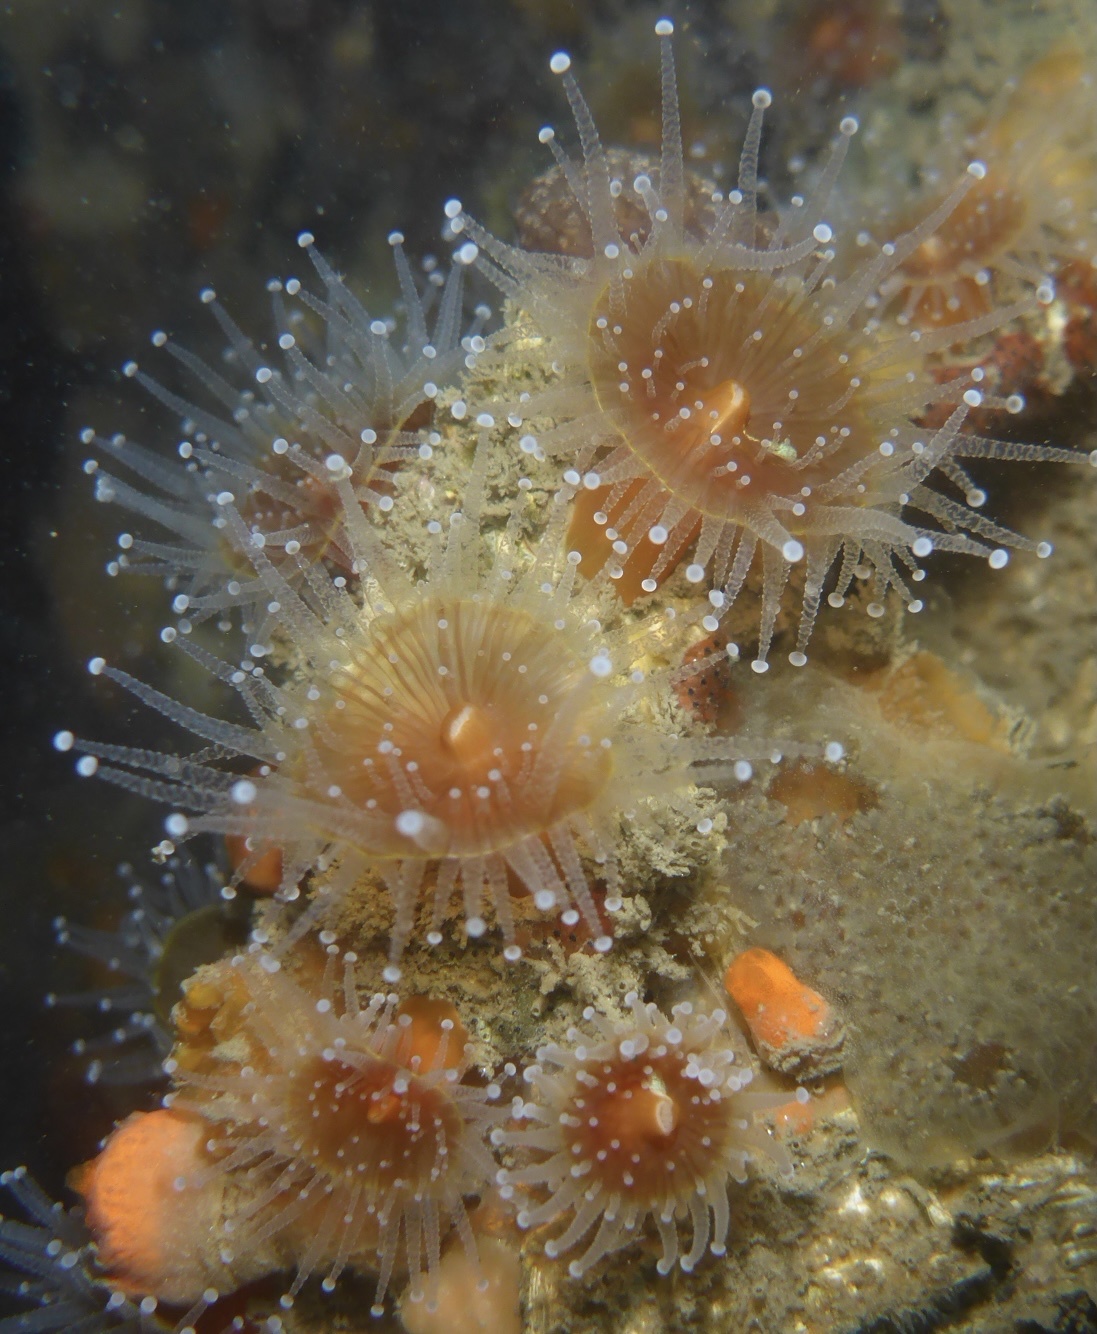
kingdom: Animalia
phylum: Cnidaria
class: Anthozoa
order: Corallimorpharia
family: Corallimorphidae
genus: Corynactis
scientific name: Corynactis californica
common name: Strawberry corallimorpharian
